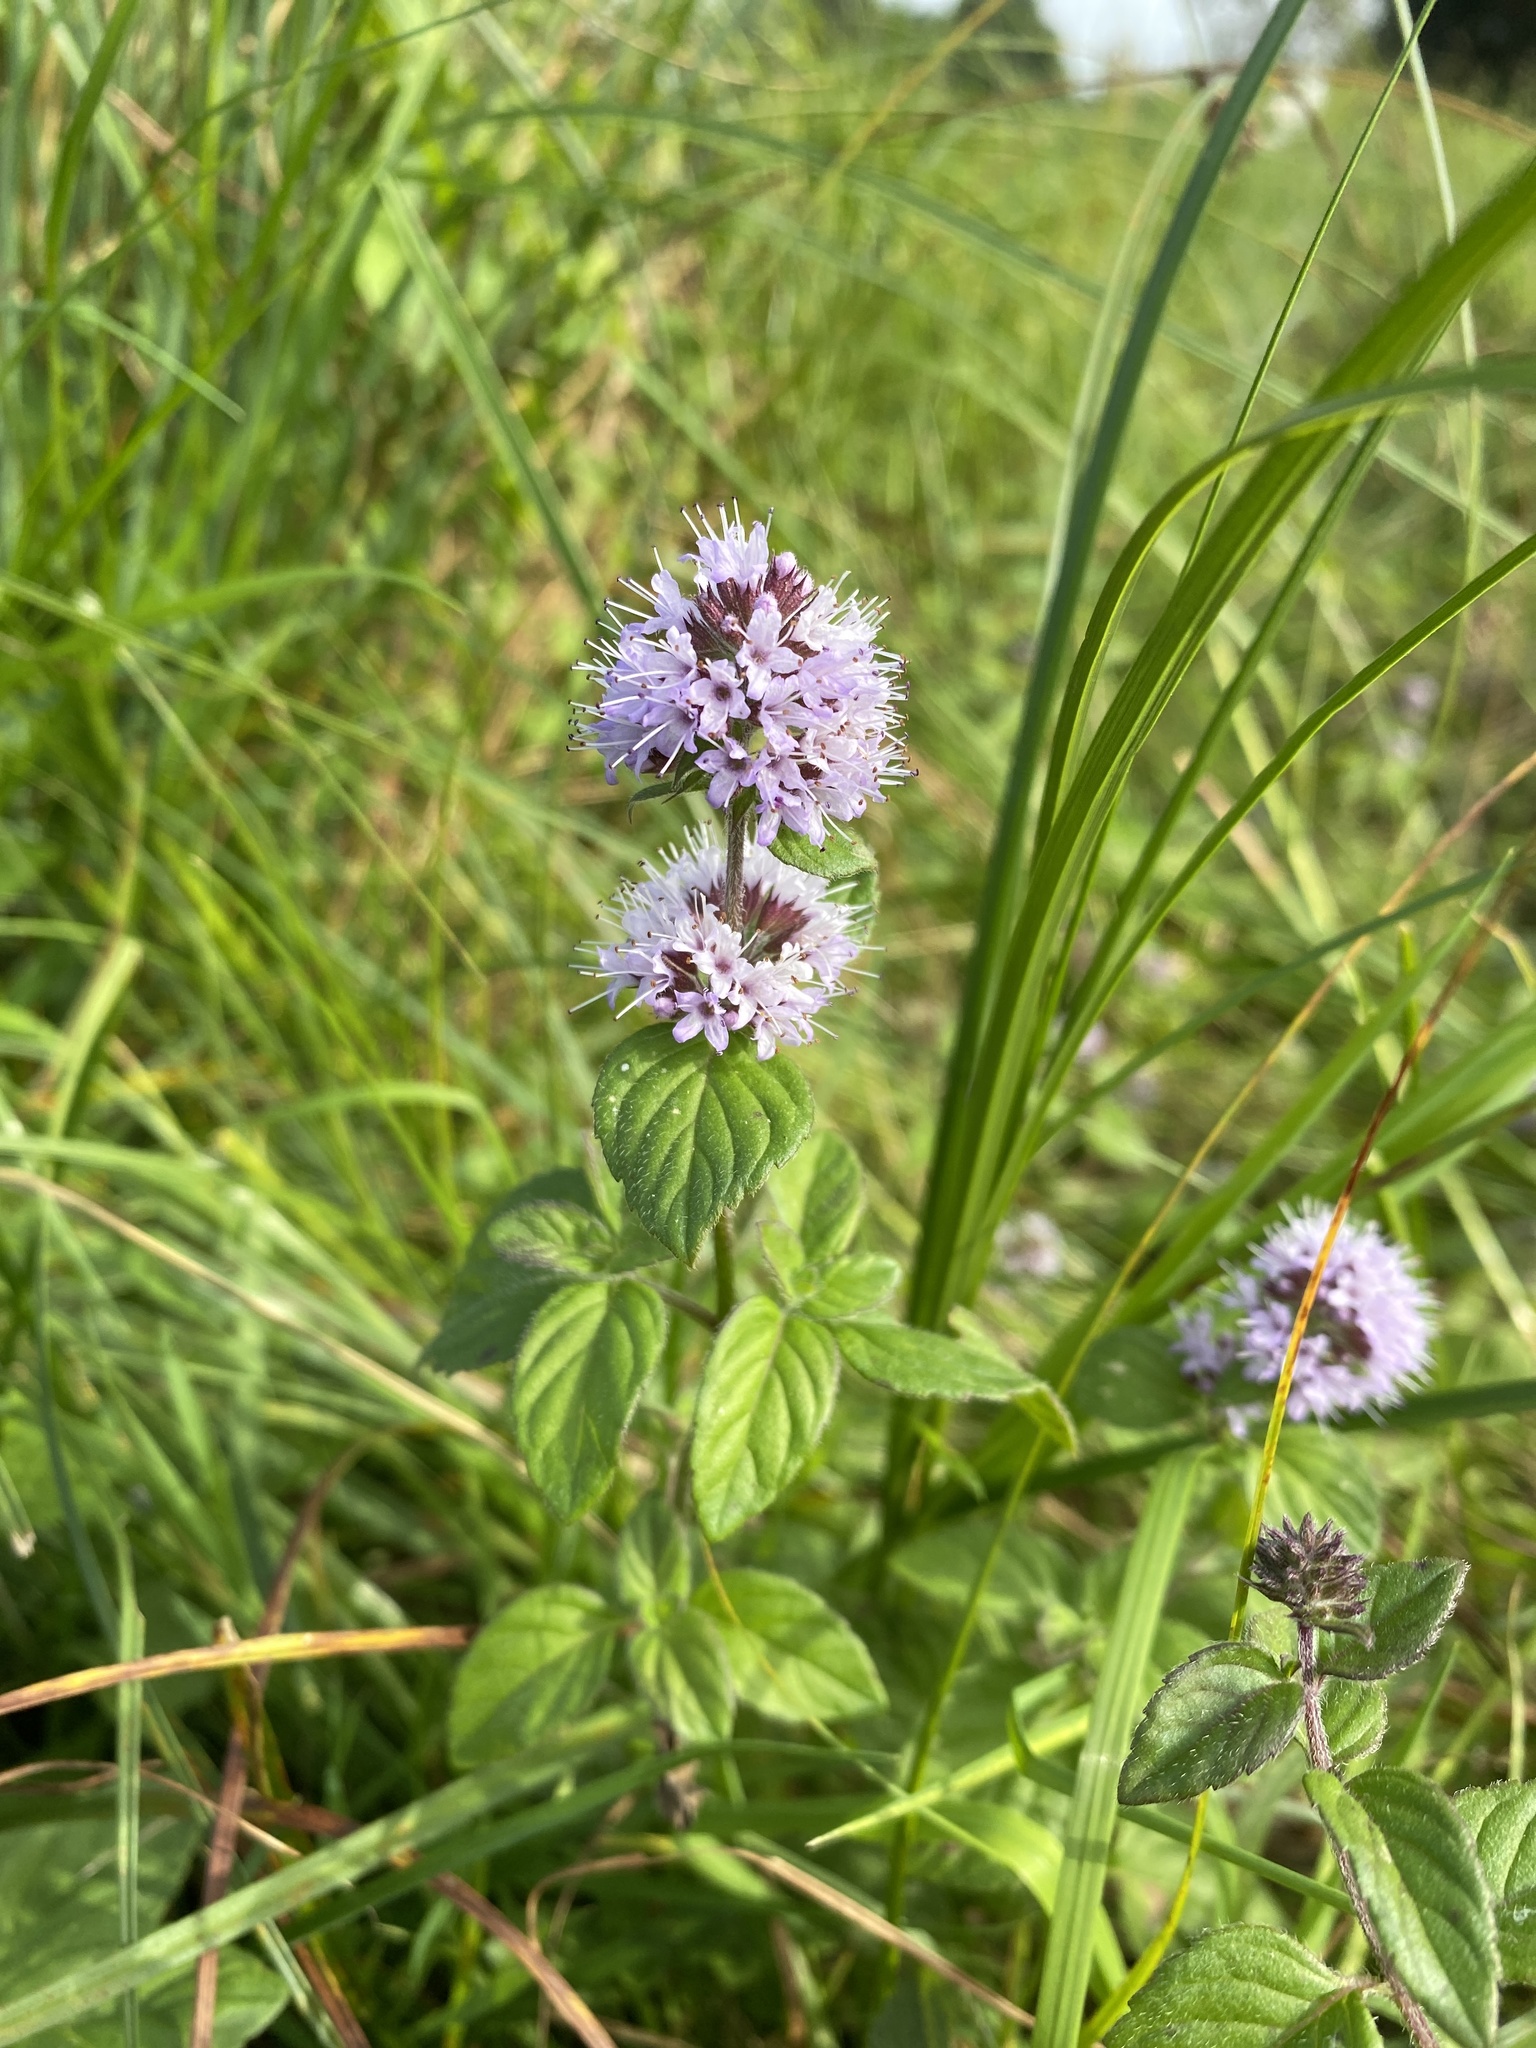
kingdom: Plantae
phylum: Tracheophyta
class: Magnoliopsida
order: Lamiales
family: Lamiaceae
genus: Mentha
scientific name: Mentha aquatica
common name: Water mint
